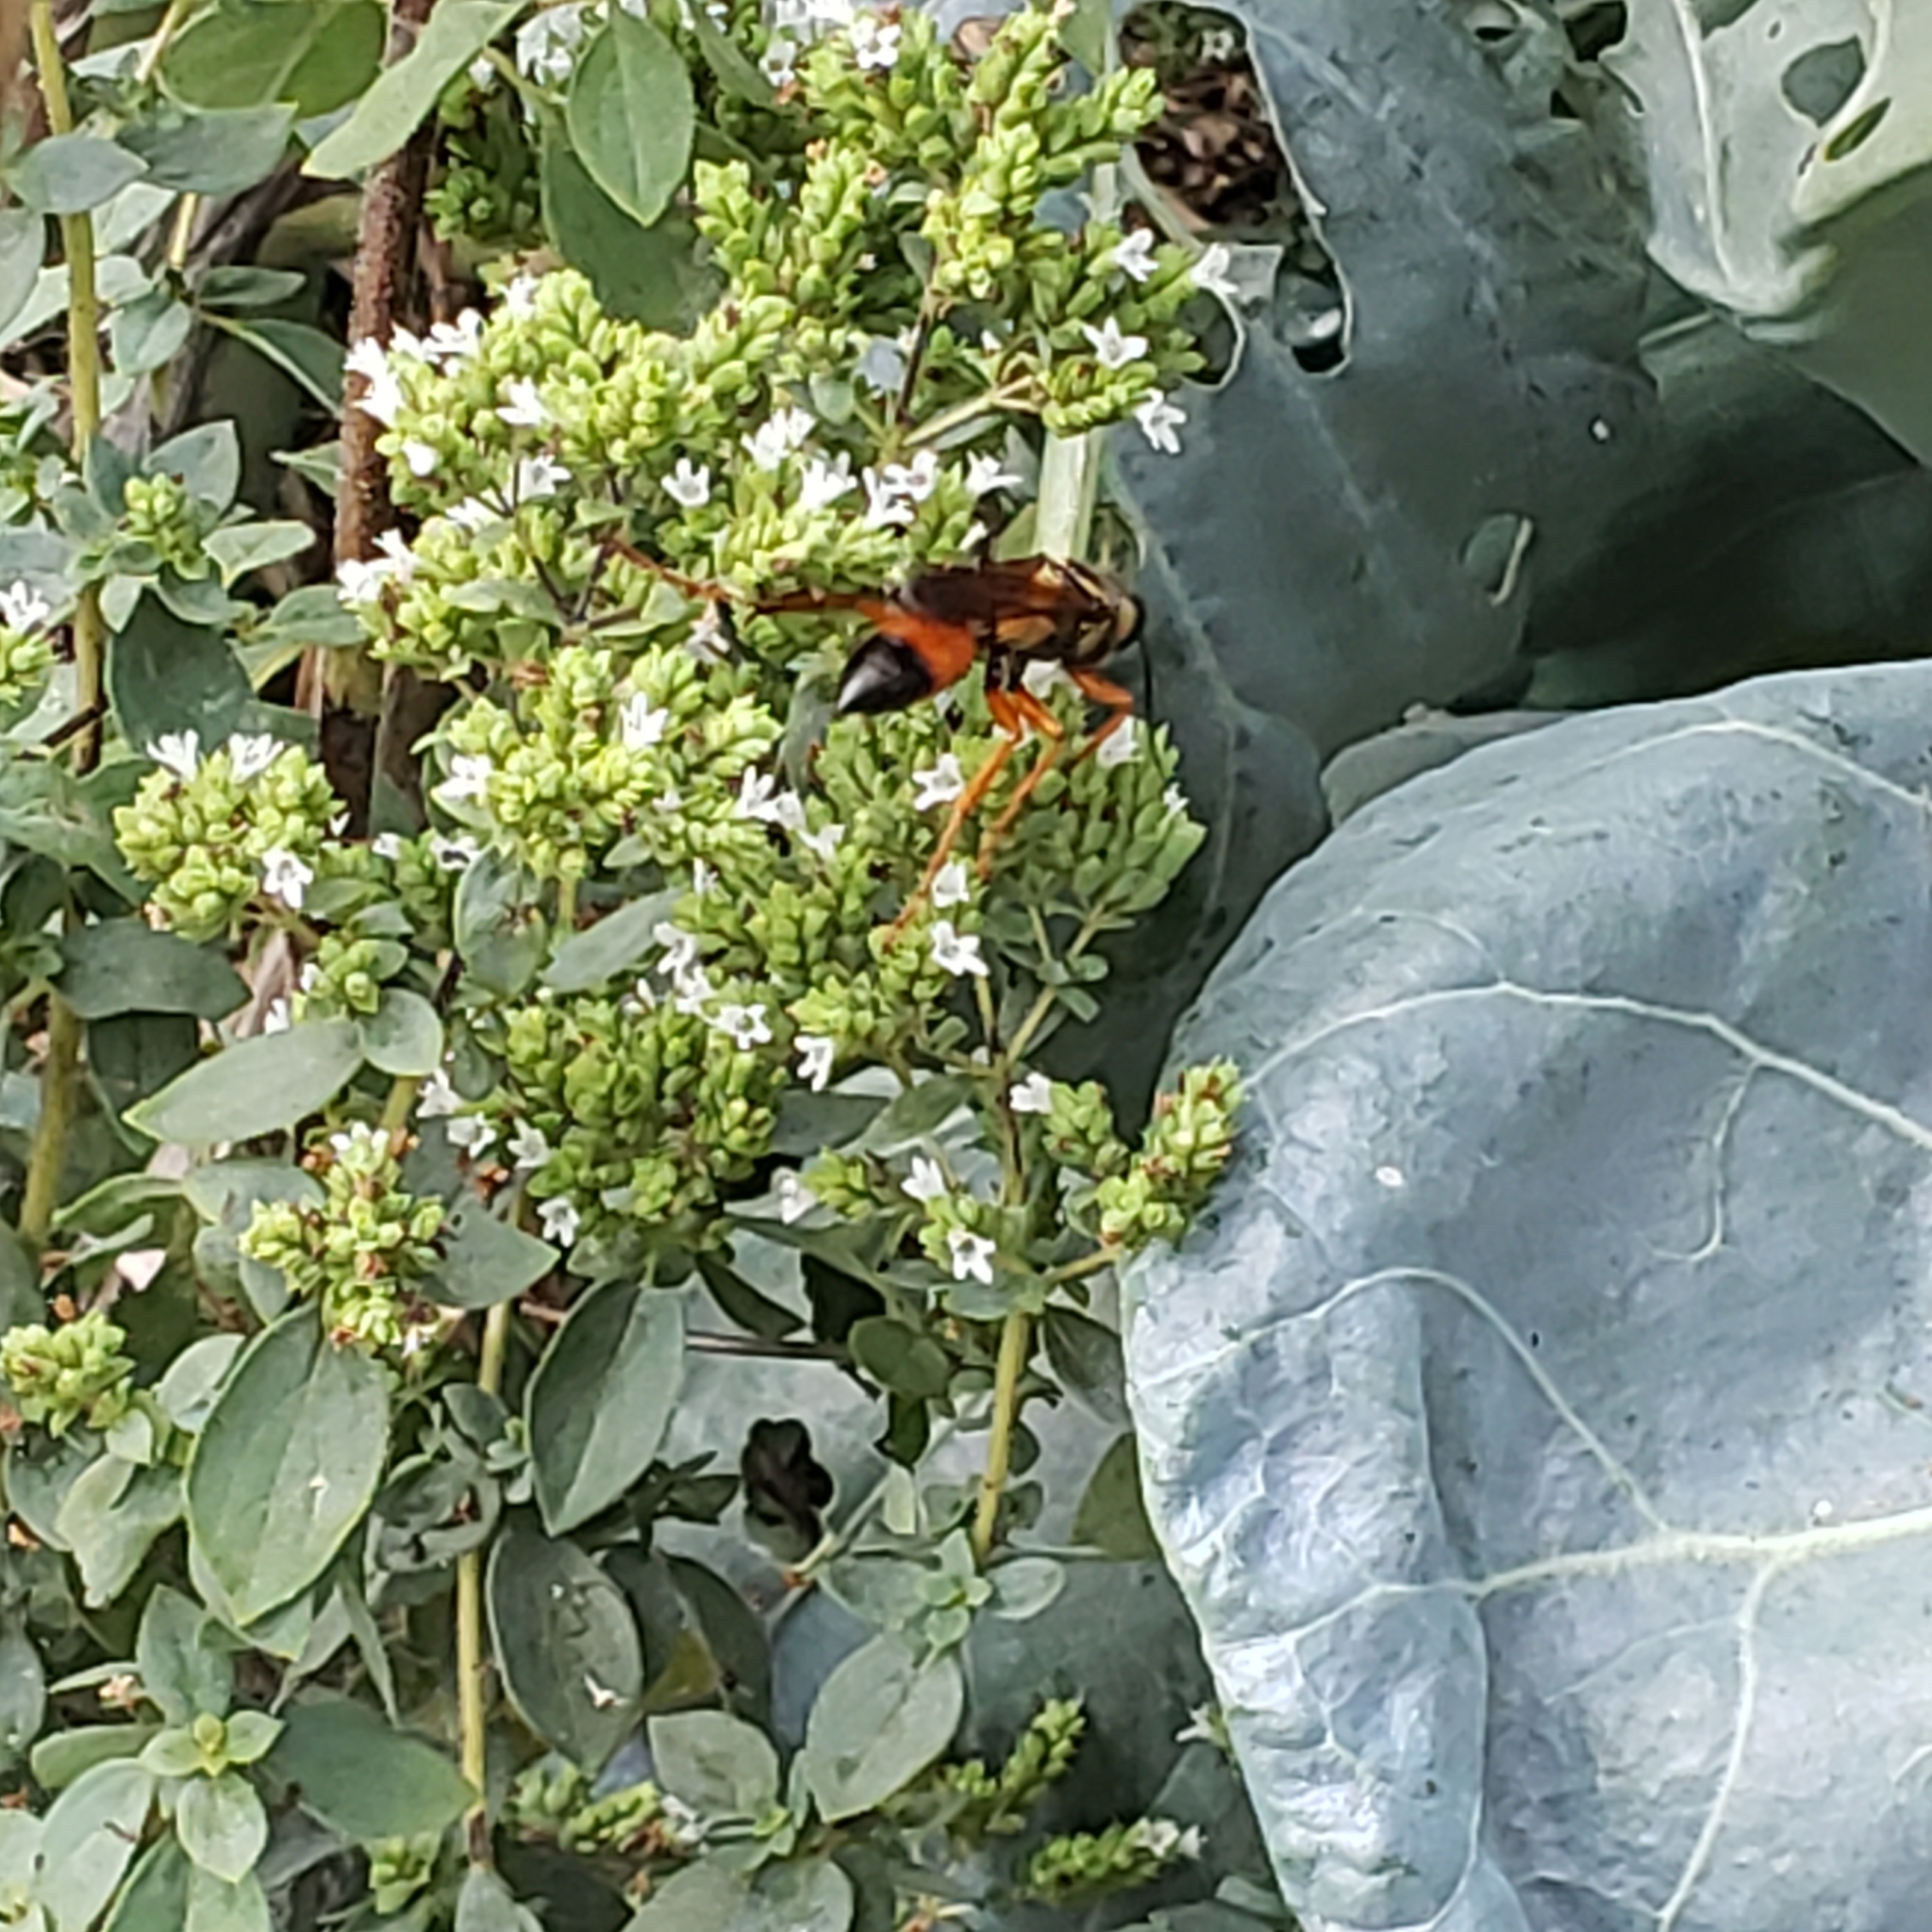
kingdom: Animalia
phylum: Arthropoda
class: Insecta
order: Hymenoptera
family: Sphecidae
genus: Sphex
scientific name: Sphex ichneumoneus
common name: Great golden digger wasp
